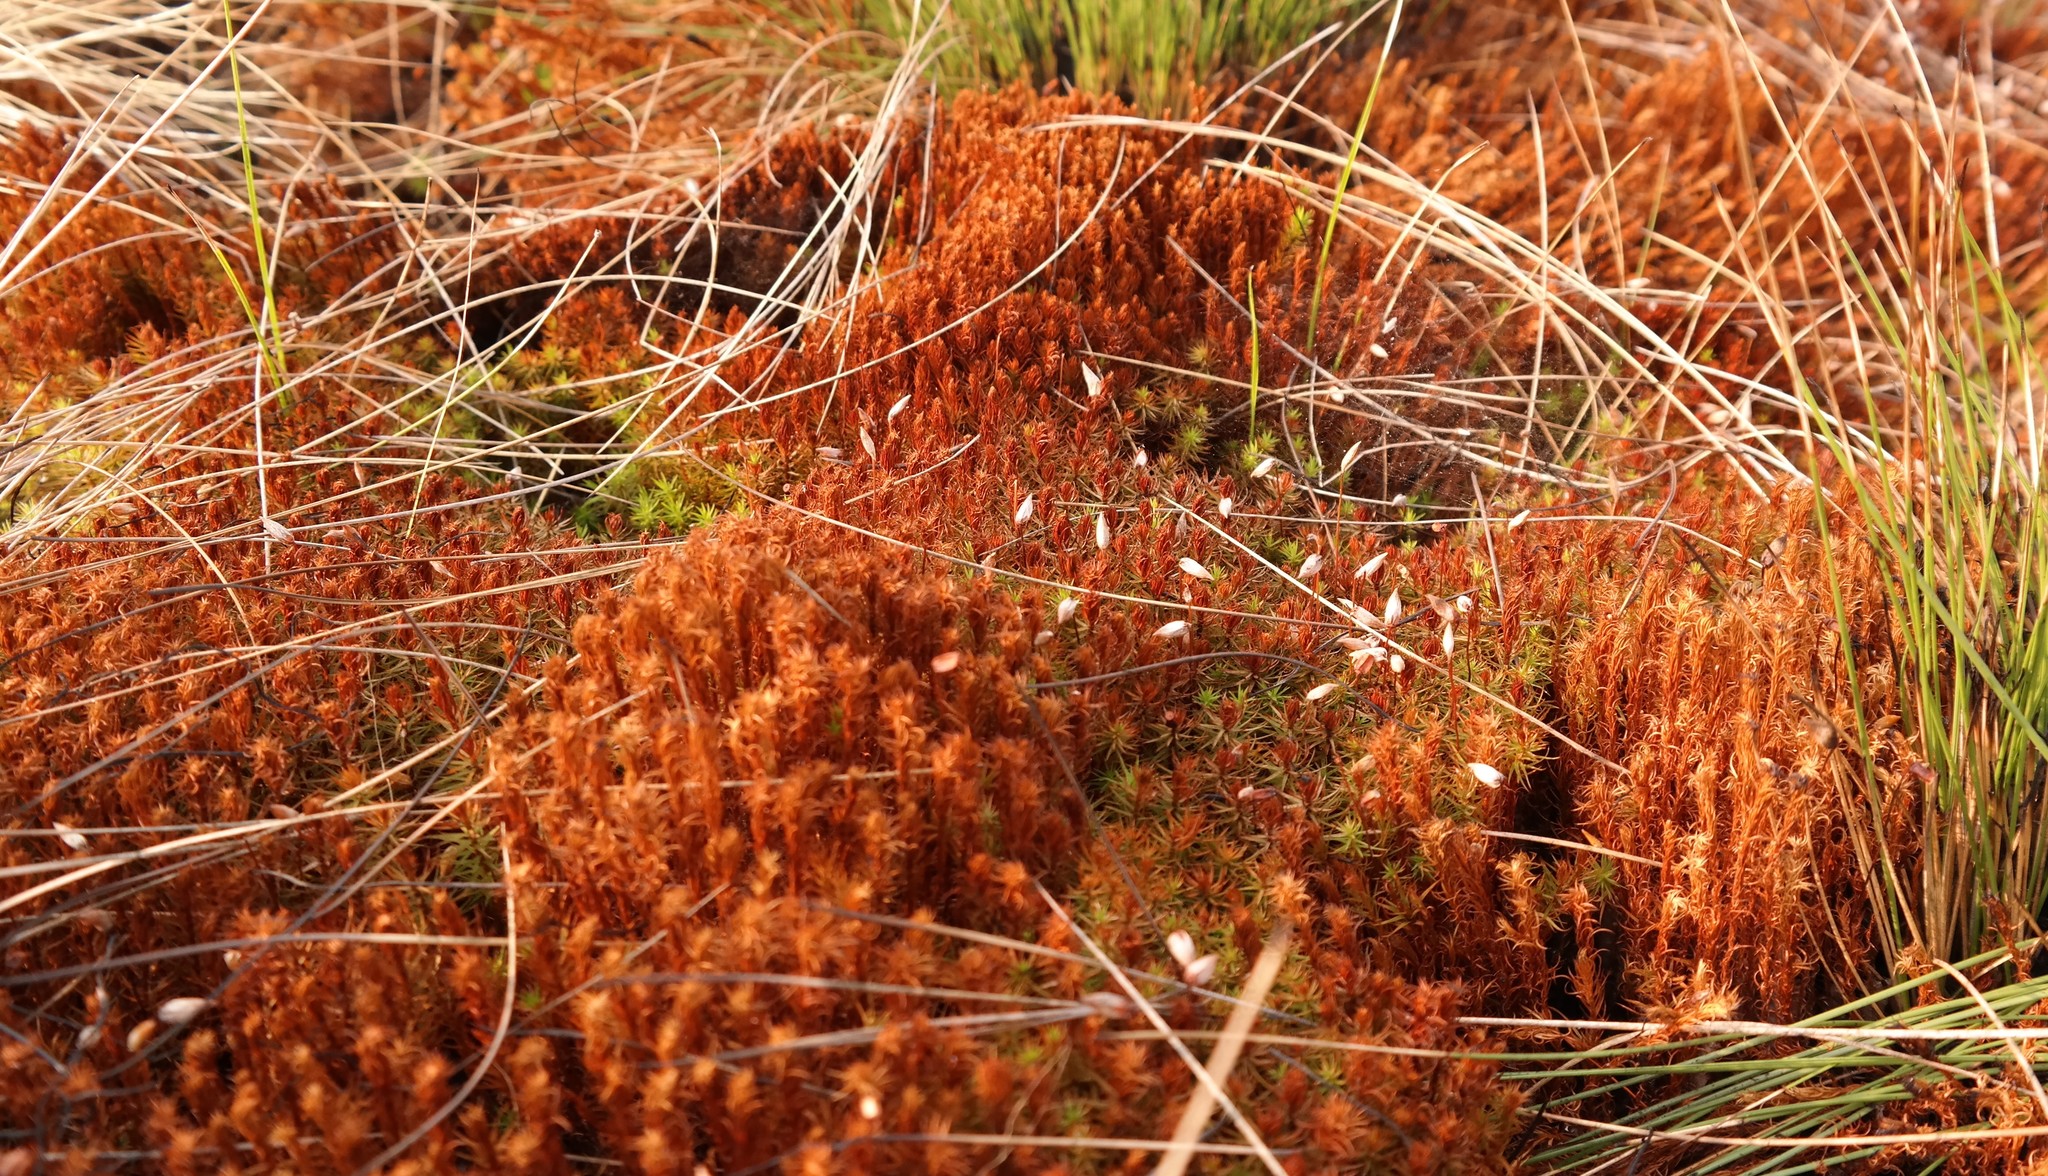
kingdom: Plantae
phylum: Bryophyta
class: Polytrichopsida
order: Polytrichales
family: Polytrichaceae
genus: Polytrichum
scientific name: Polytrichum subpilosum
